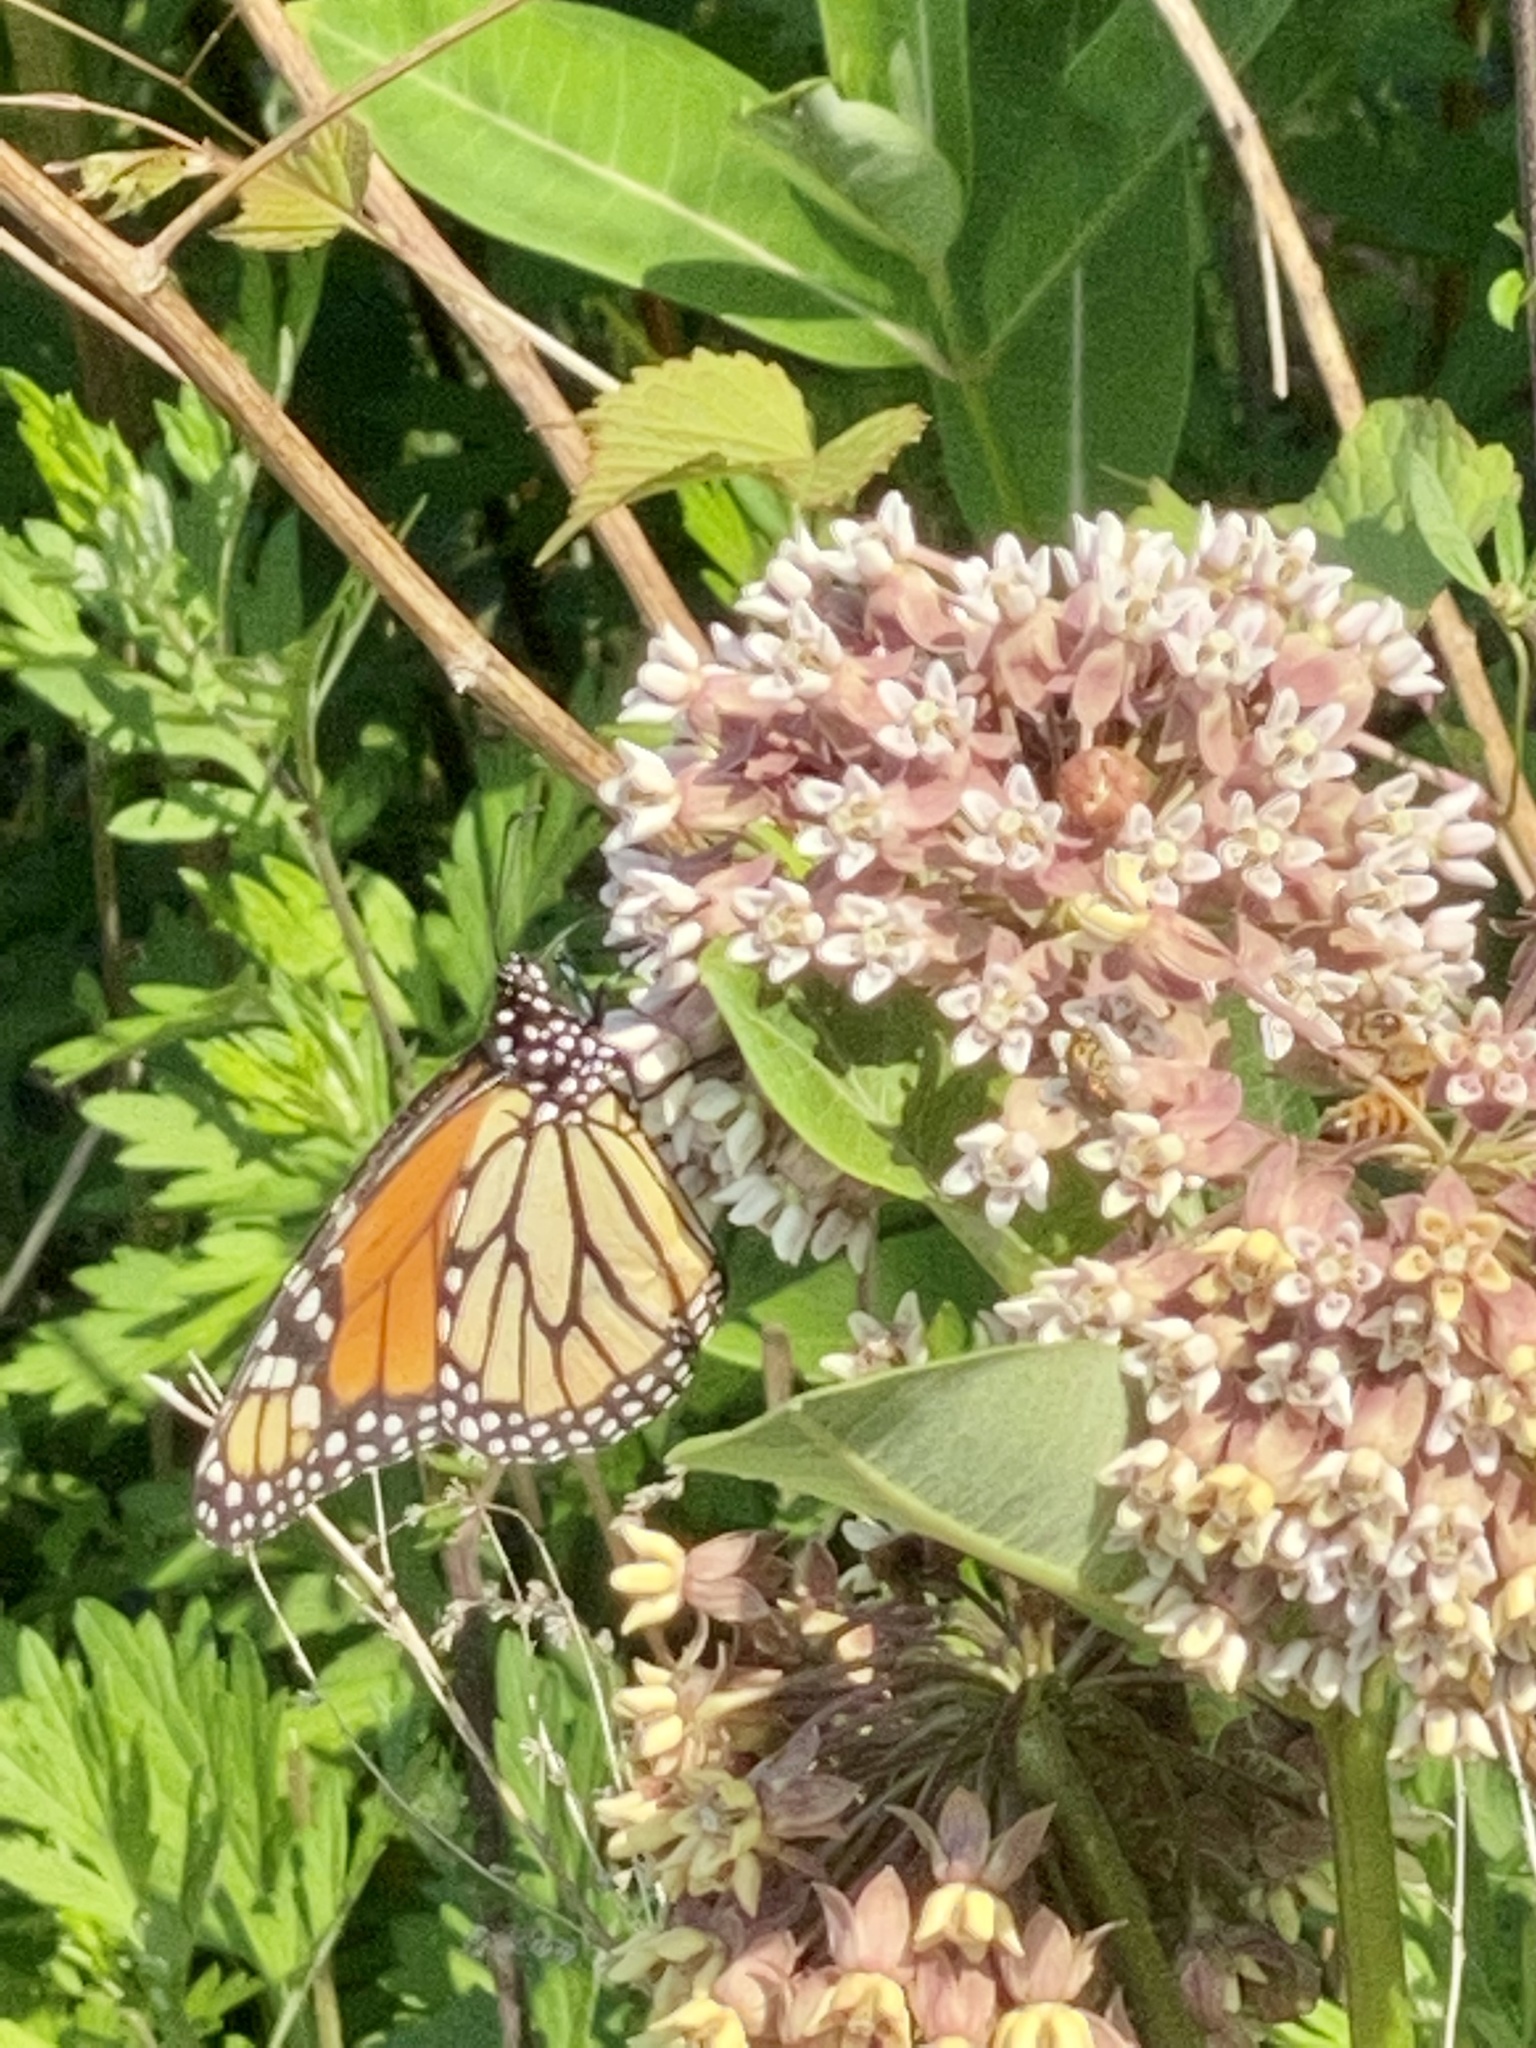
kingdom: Animalia
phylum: Arthropoda
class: Insecta
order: Lepidoptera
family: Nymphalidae
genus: Danaus
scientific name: Danaus plexippus
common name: Monarch
